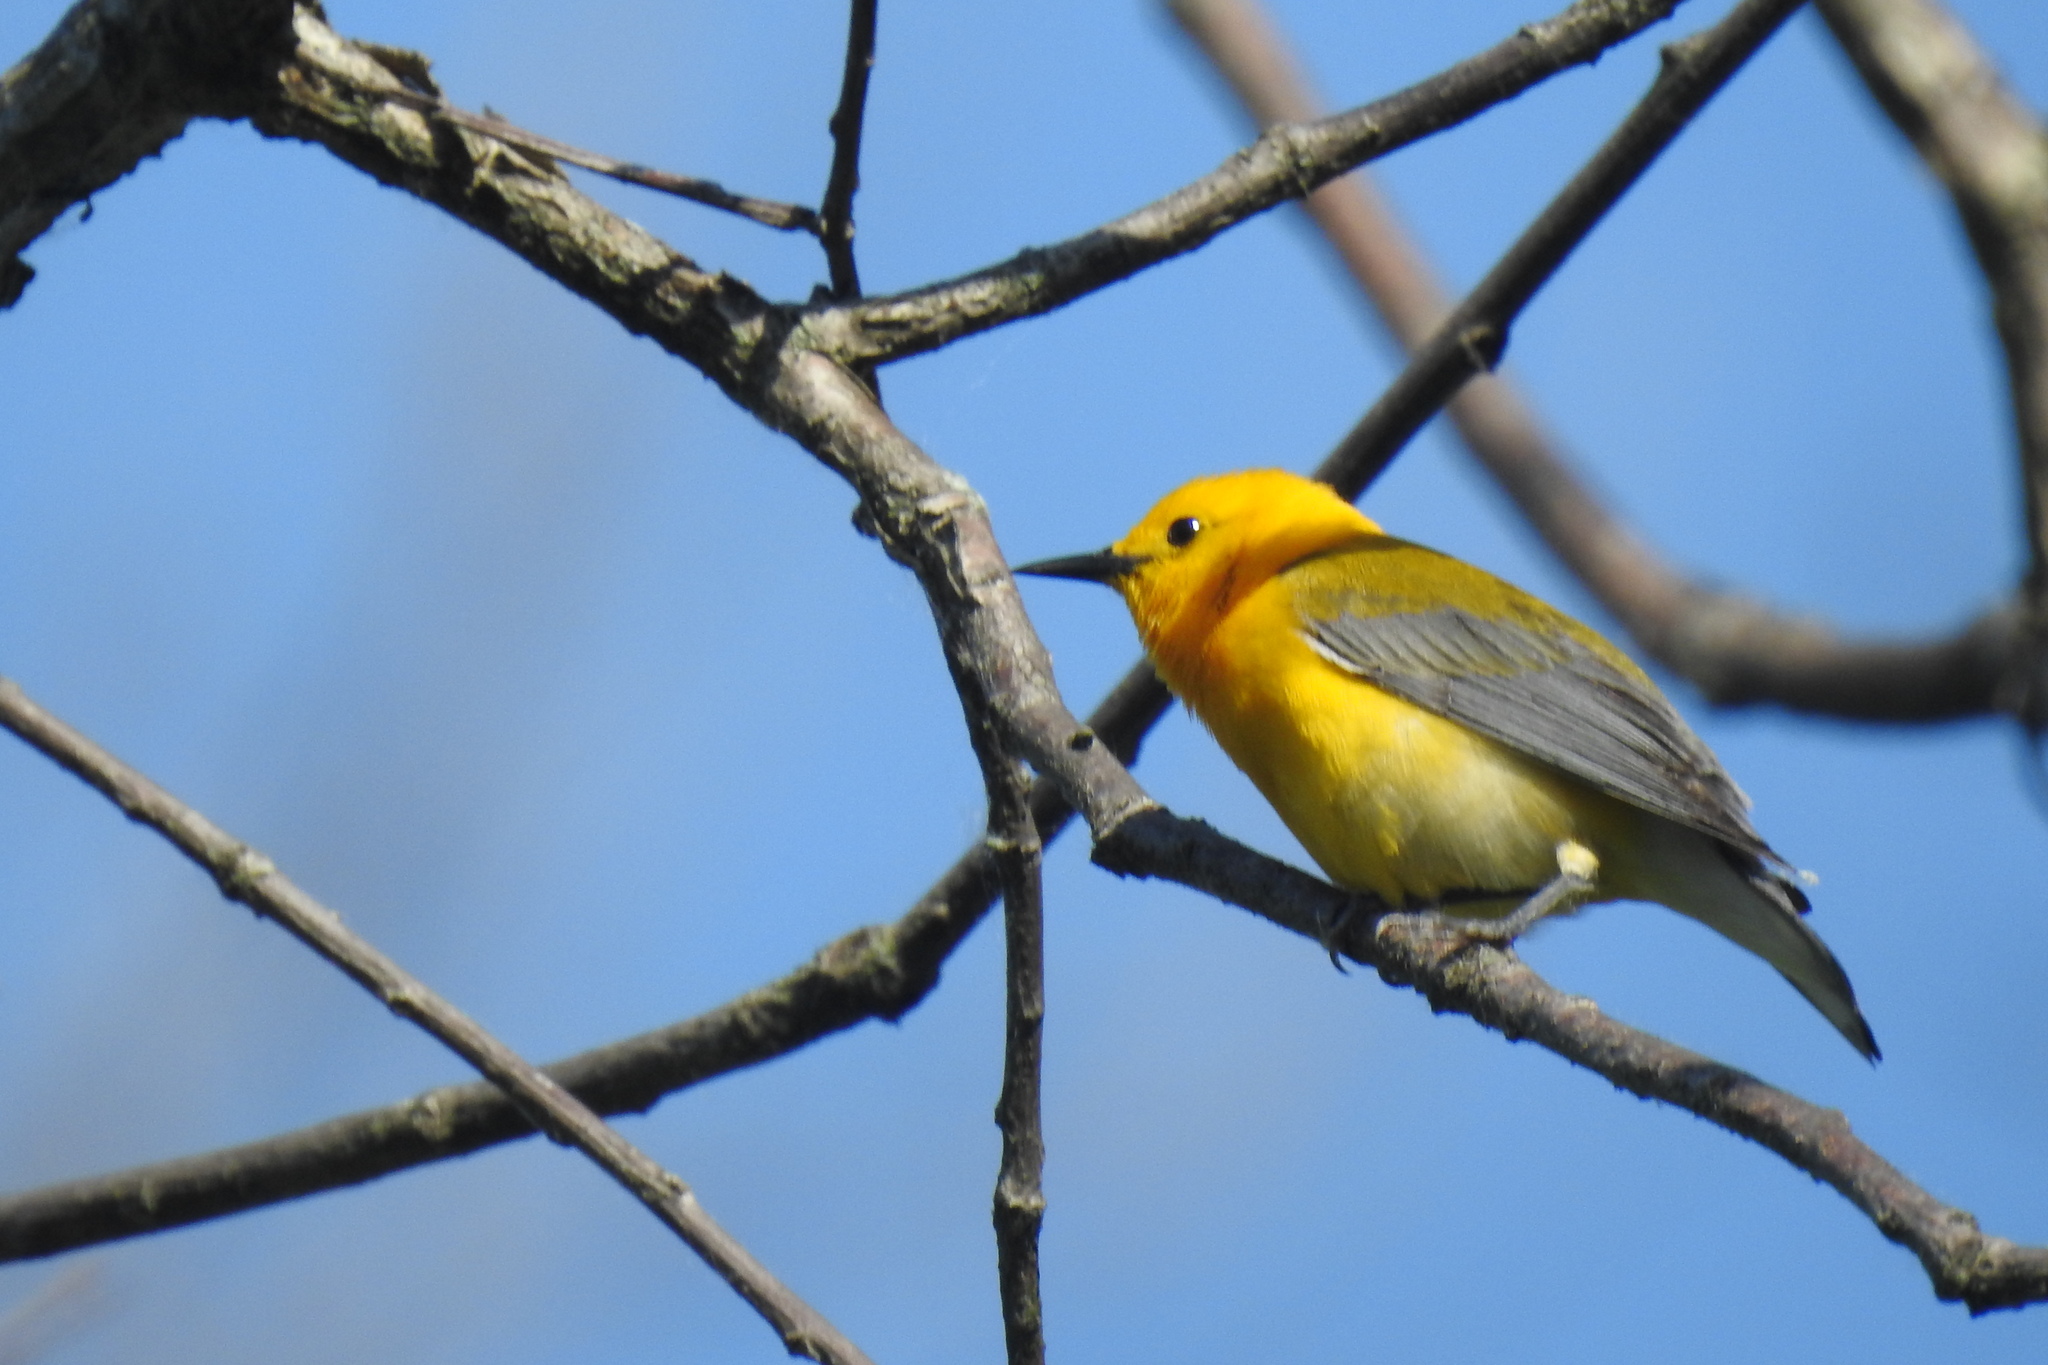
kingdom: Animalia
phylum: Chordata
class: Aves
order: Passeriformes
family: Parulidae
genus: Protonotaria
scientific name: Protonotaria citrea
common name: Prothonotary warbler
